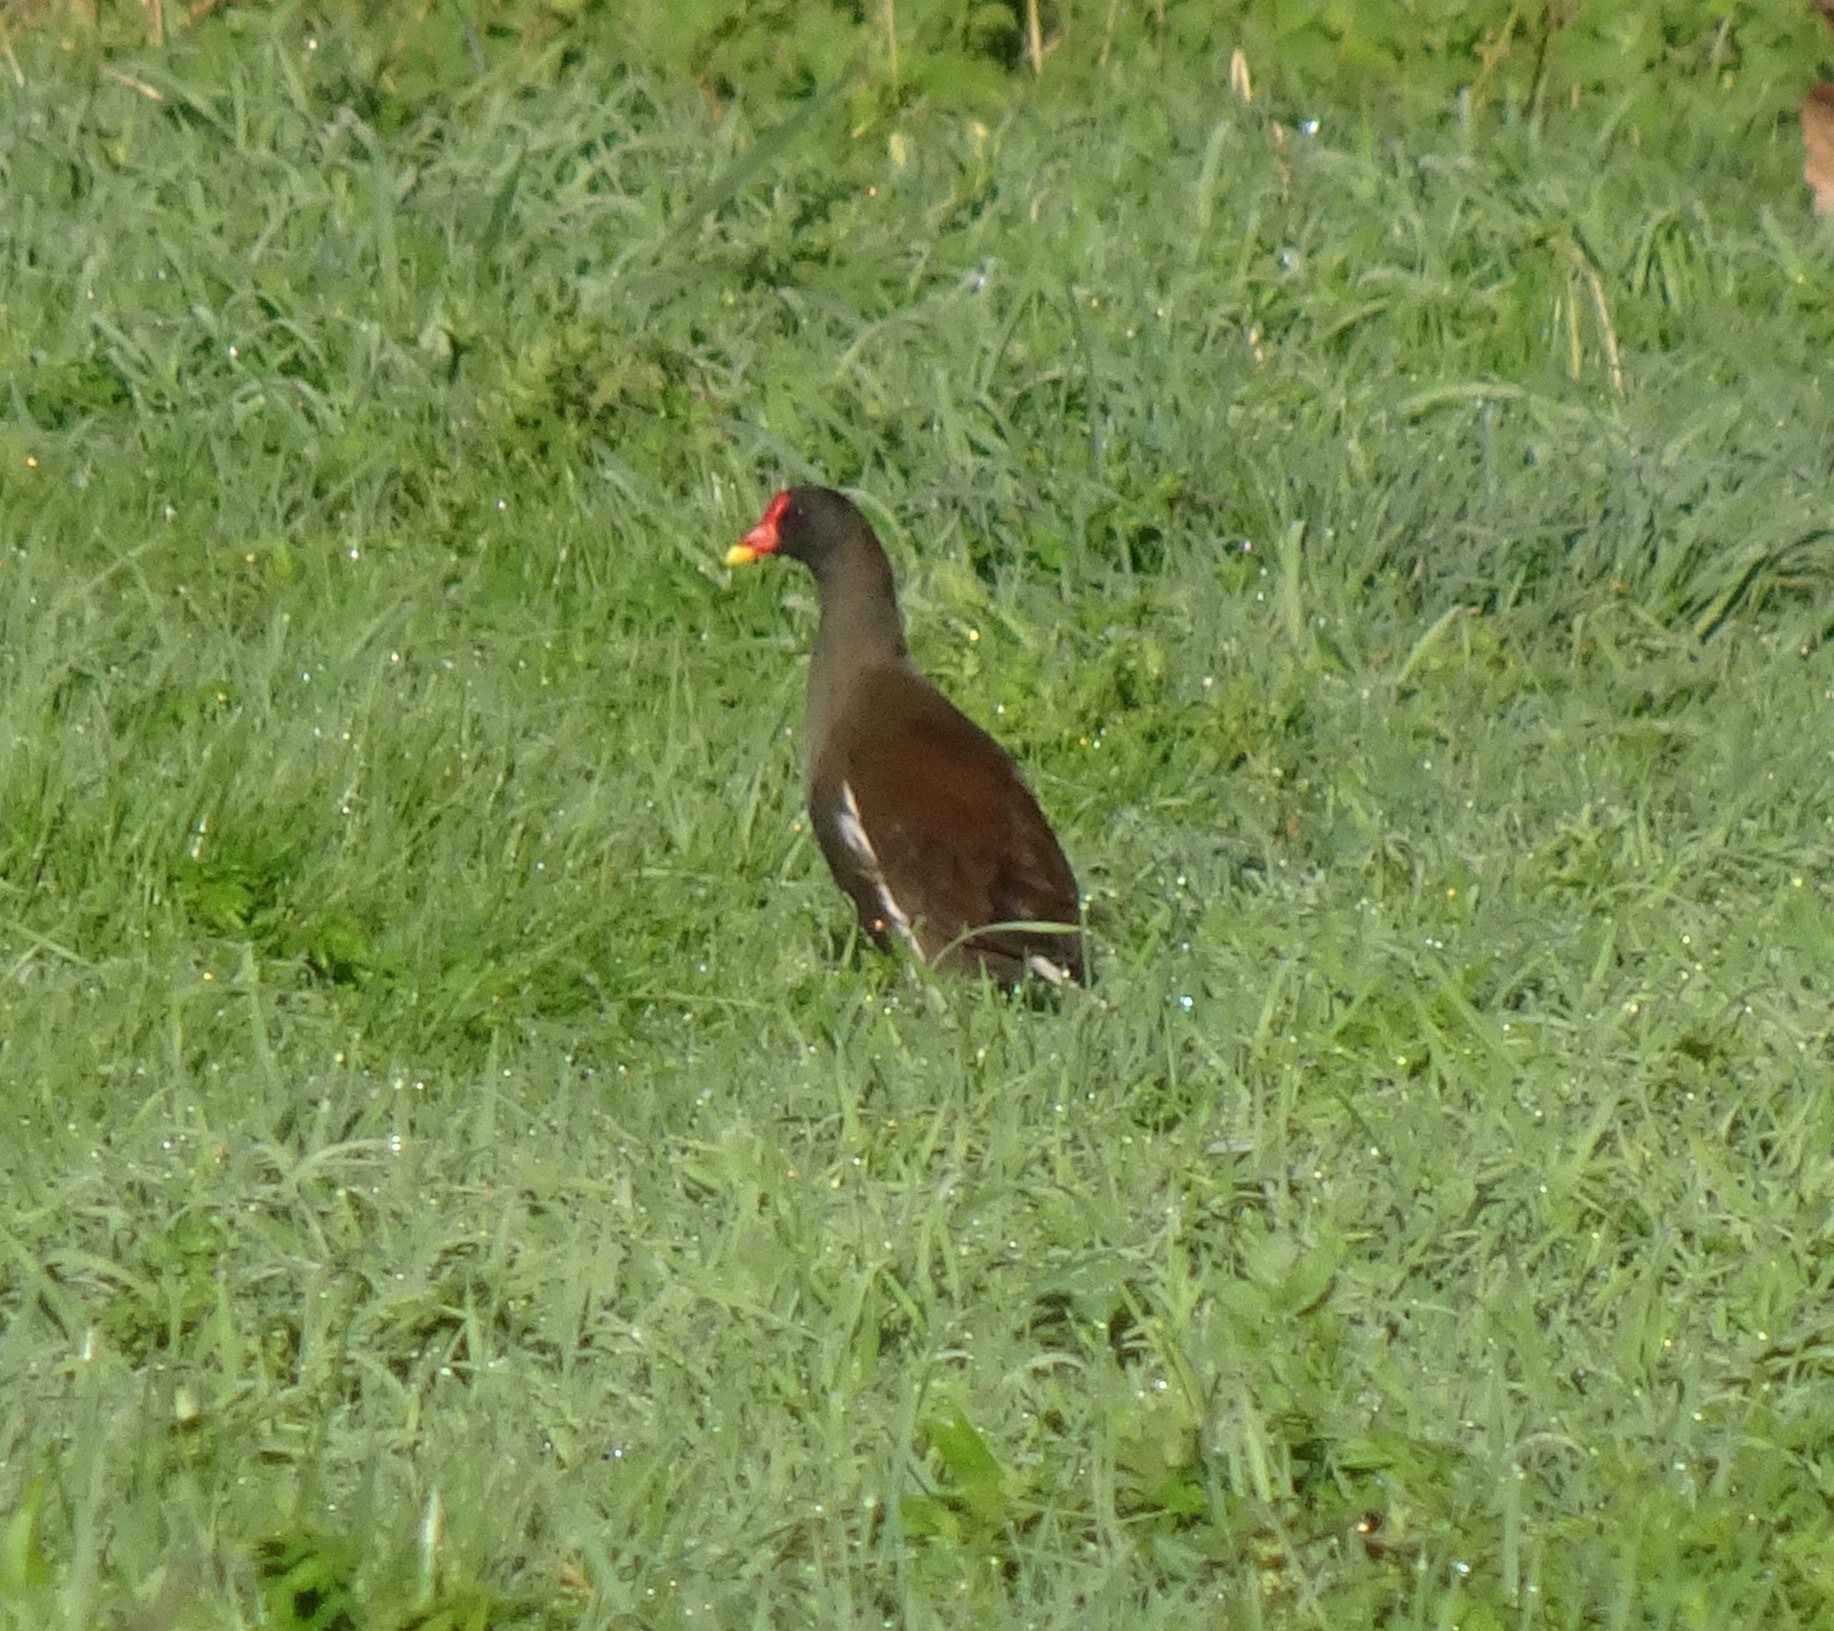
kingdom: Animalia
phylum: Chordata
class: Aves
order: Gruiformes
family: Rallidae
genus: Gallinula
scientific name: Gallinula chloropus
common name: Common moorhen
